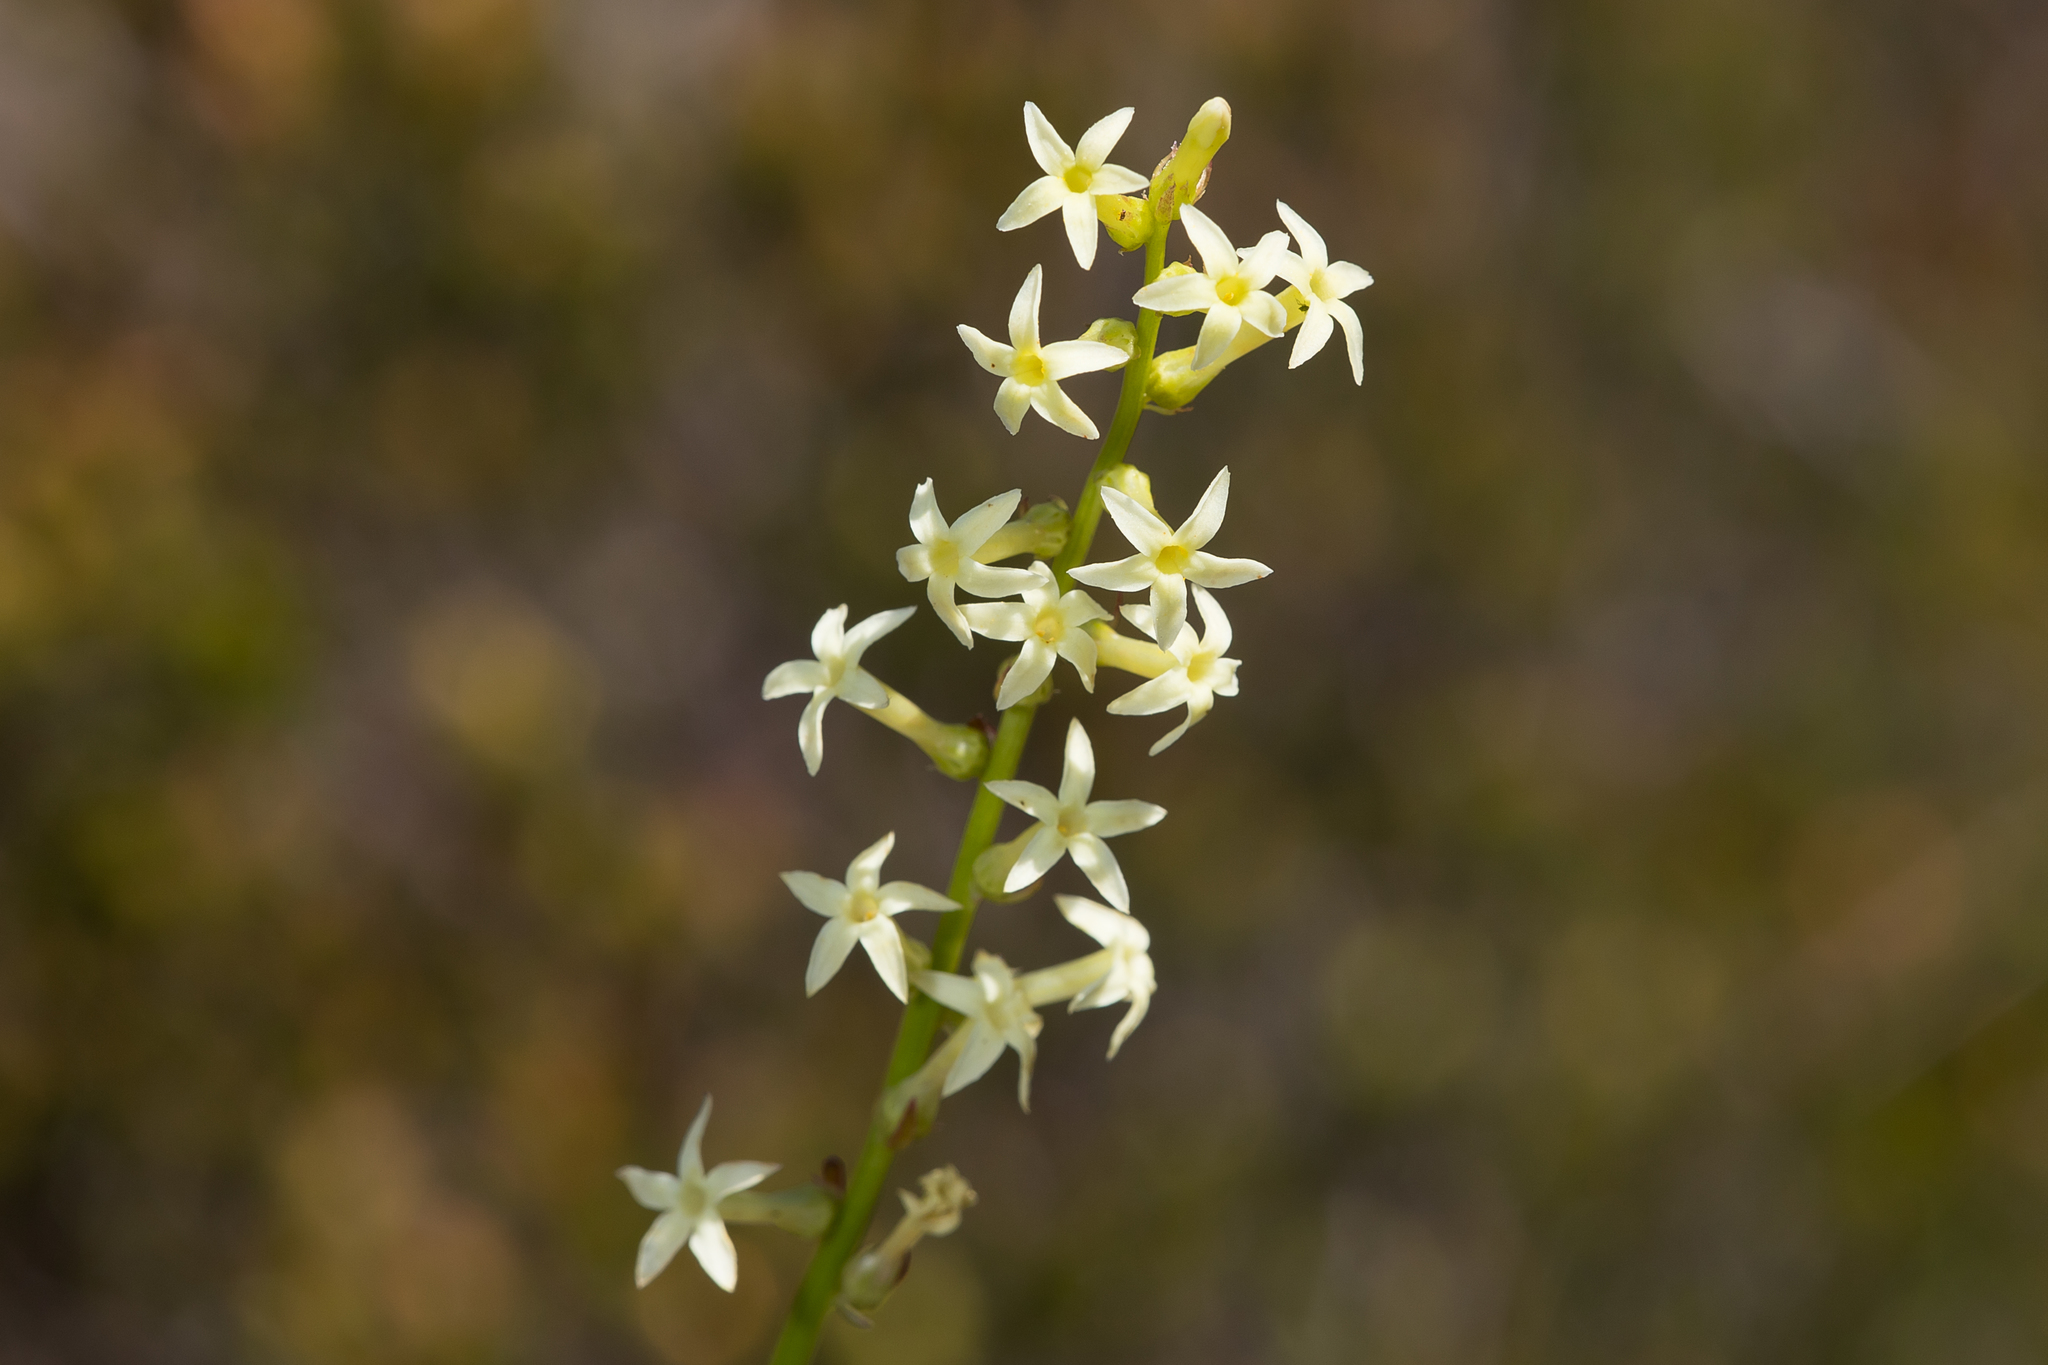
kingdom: Plantae
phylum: Tracheophyta
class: Magnoliopsida
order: Celastrales
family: Celastraceae
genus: Stackhousia
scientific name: Stackhousia monogyna
